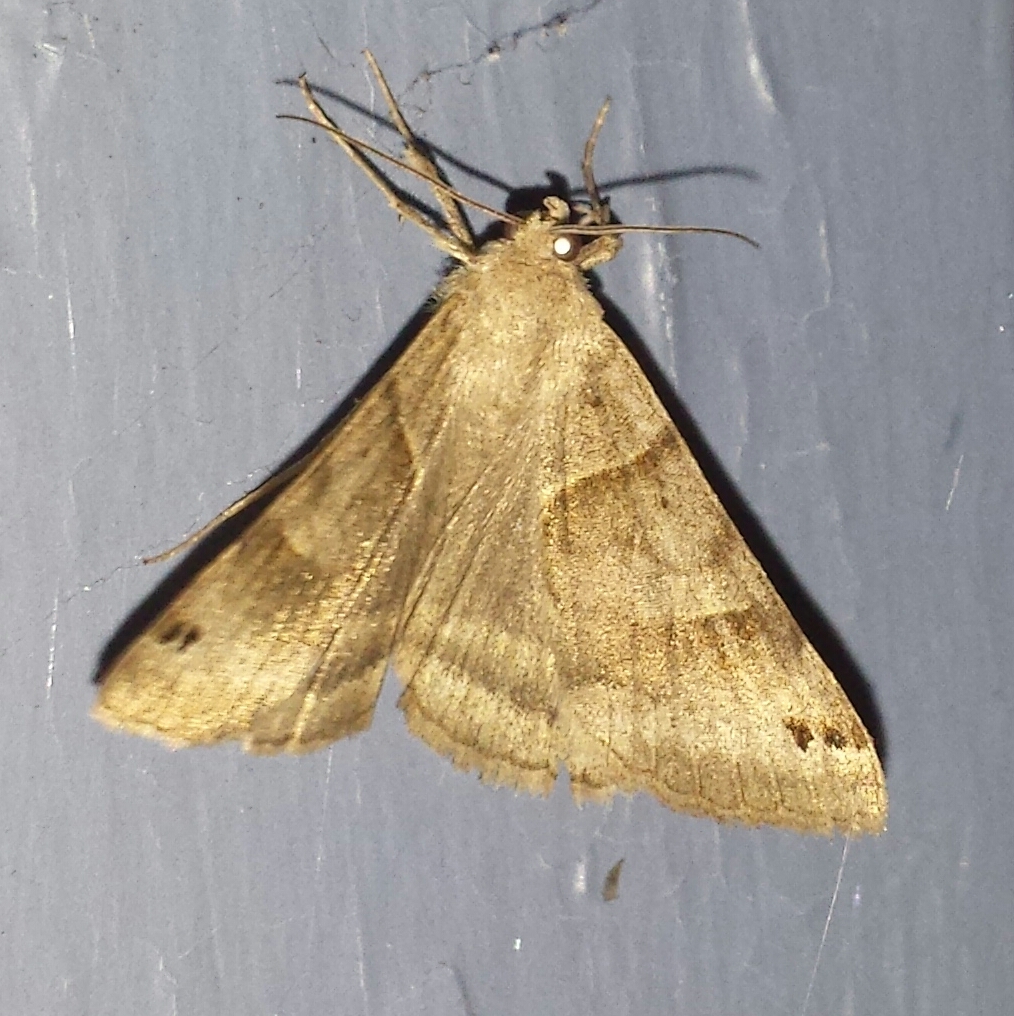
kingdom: Animalia
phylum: Arthropoda
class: Insecta
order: Lepidoptera
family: Erebidae
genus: Caenurgina
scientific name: Caenurgina crassiuscula
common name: Double-barred
